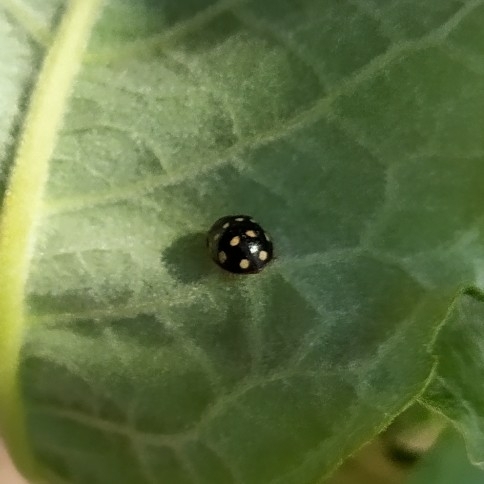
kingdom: Animalia
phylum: Arthropoda
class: Insecta
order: Coleoptera
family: Coccinellidae
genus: Calvia
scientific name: Calvia quatuordecimguttata
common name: Cream-spot ladybird
